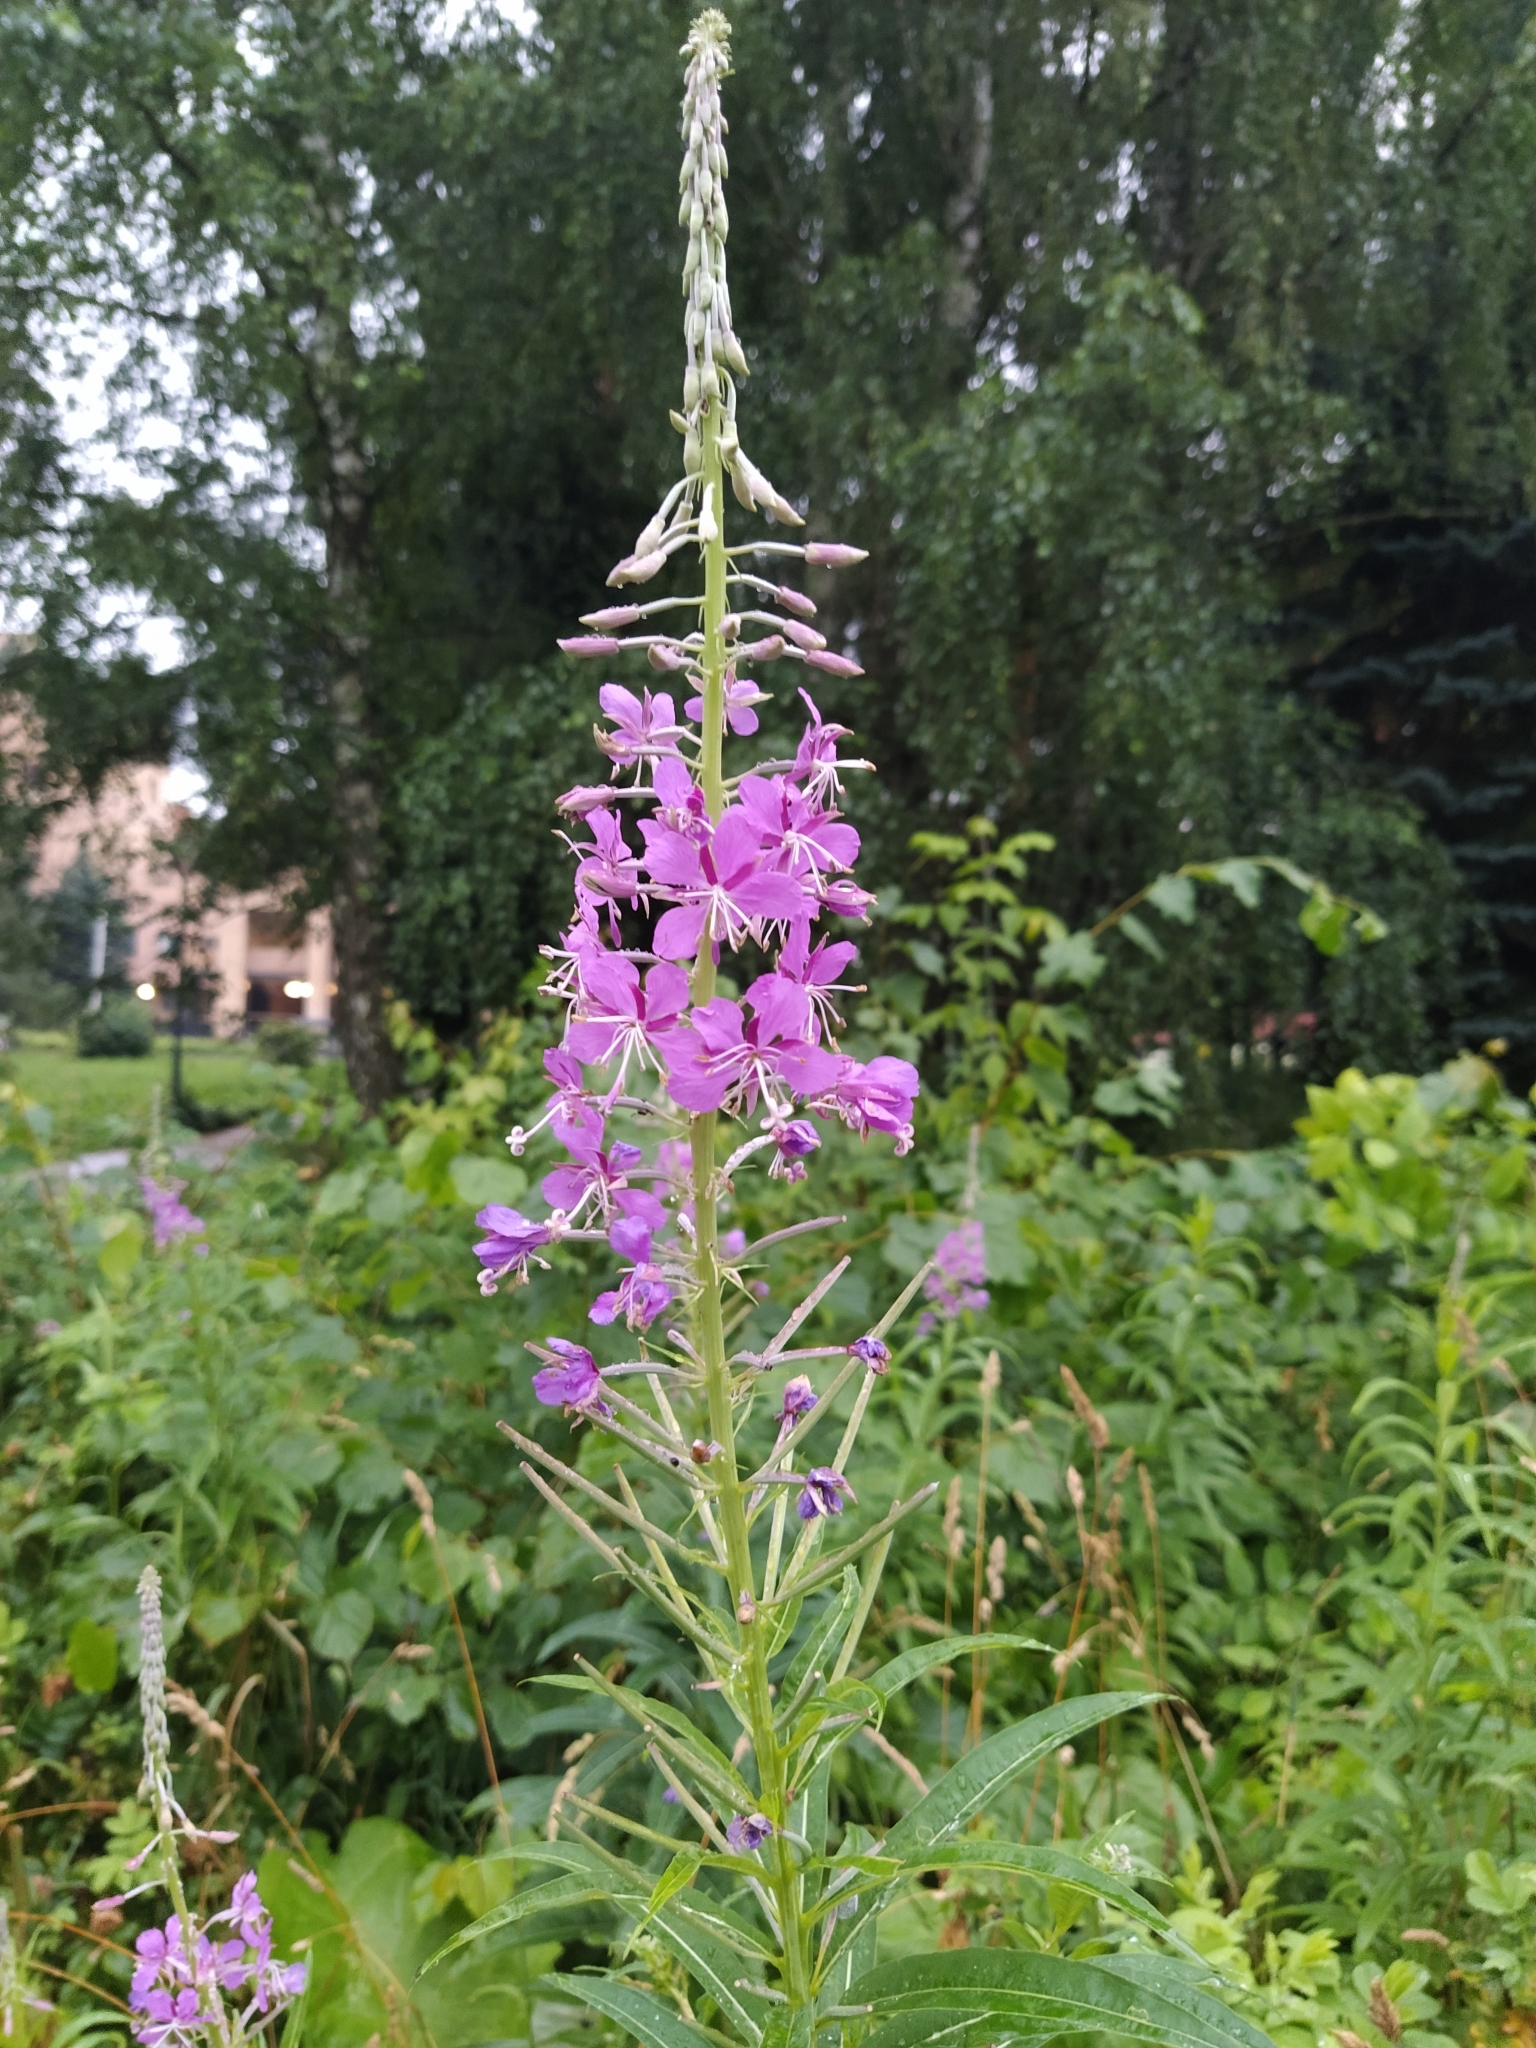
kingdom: Plantae
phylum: Tracheophyta
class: Magnoliopsida
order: Myrtales
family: Onagraceae
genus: Chamaenerion
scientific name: Chamaenerion angustifolium
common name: Fireweed
